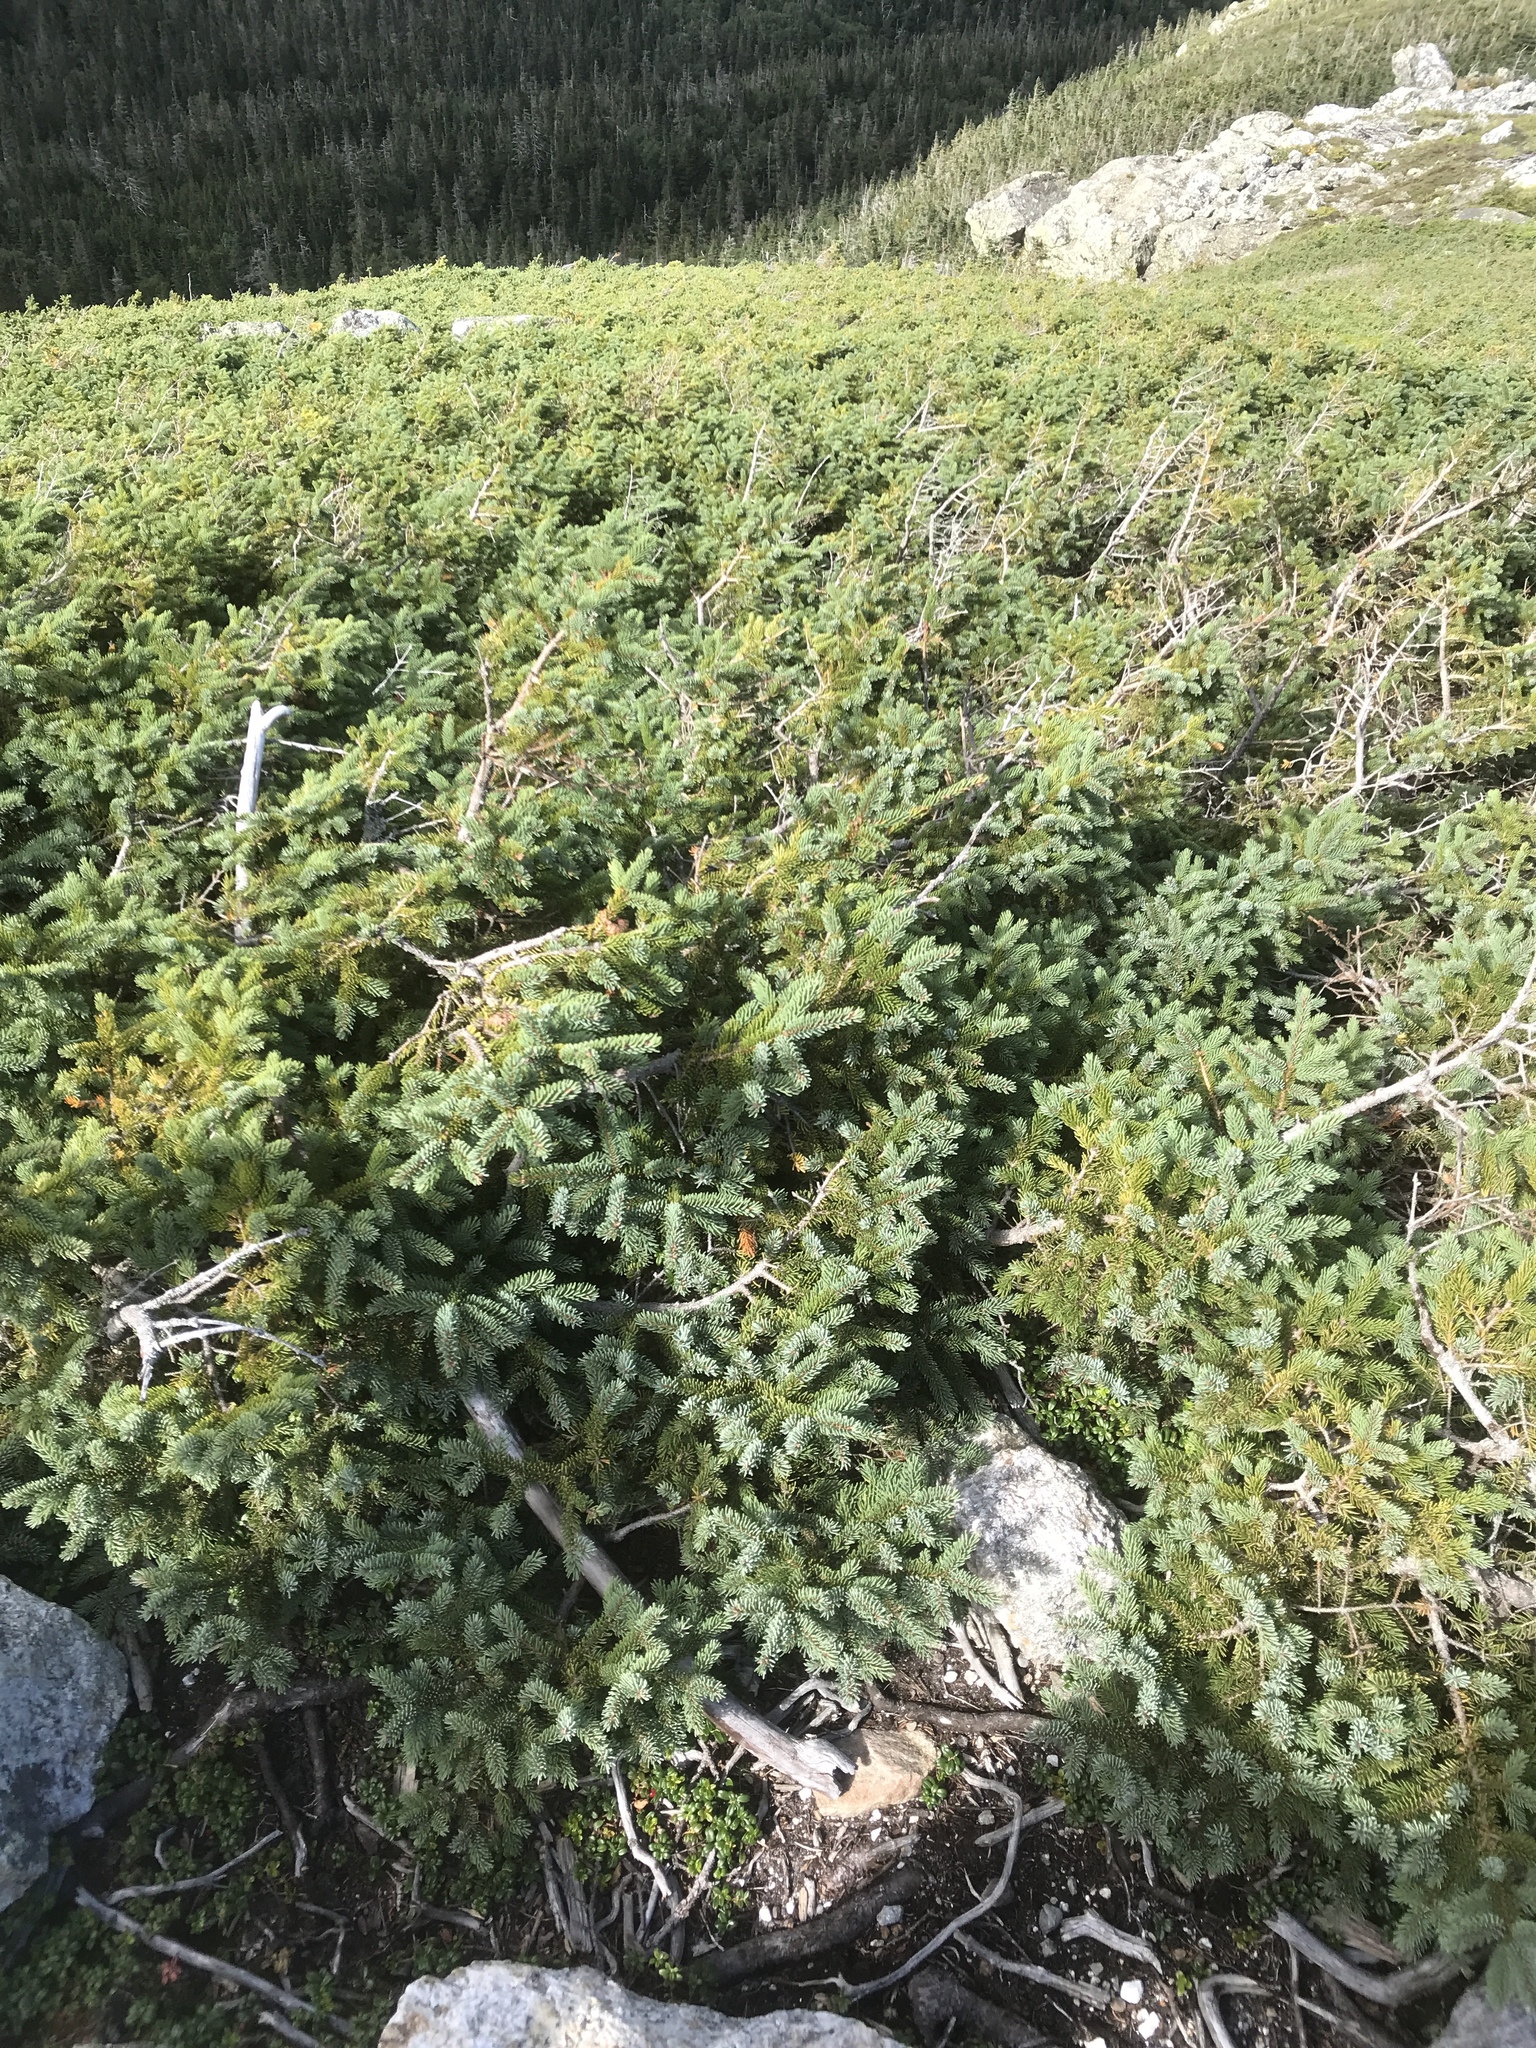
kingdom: Plantae
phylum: Tracheophyta
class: Pinopsida
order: Pinales
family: Pinaceae
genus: Picea
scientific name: Picea mariana
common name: Black spruce
